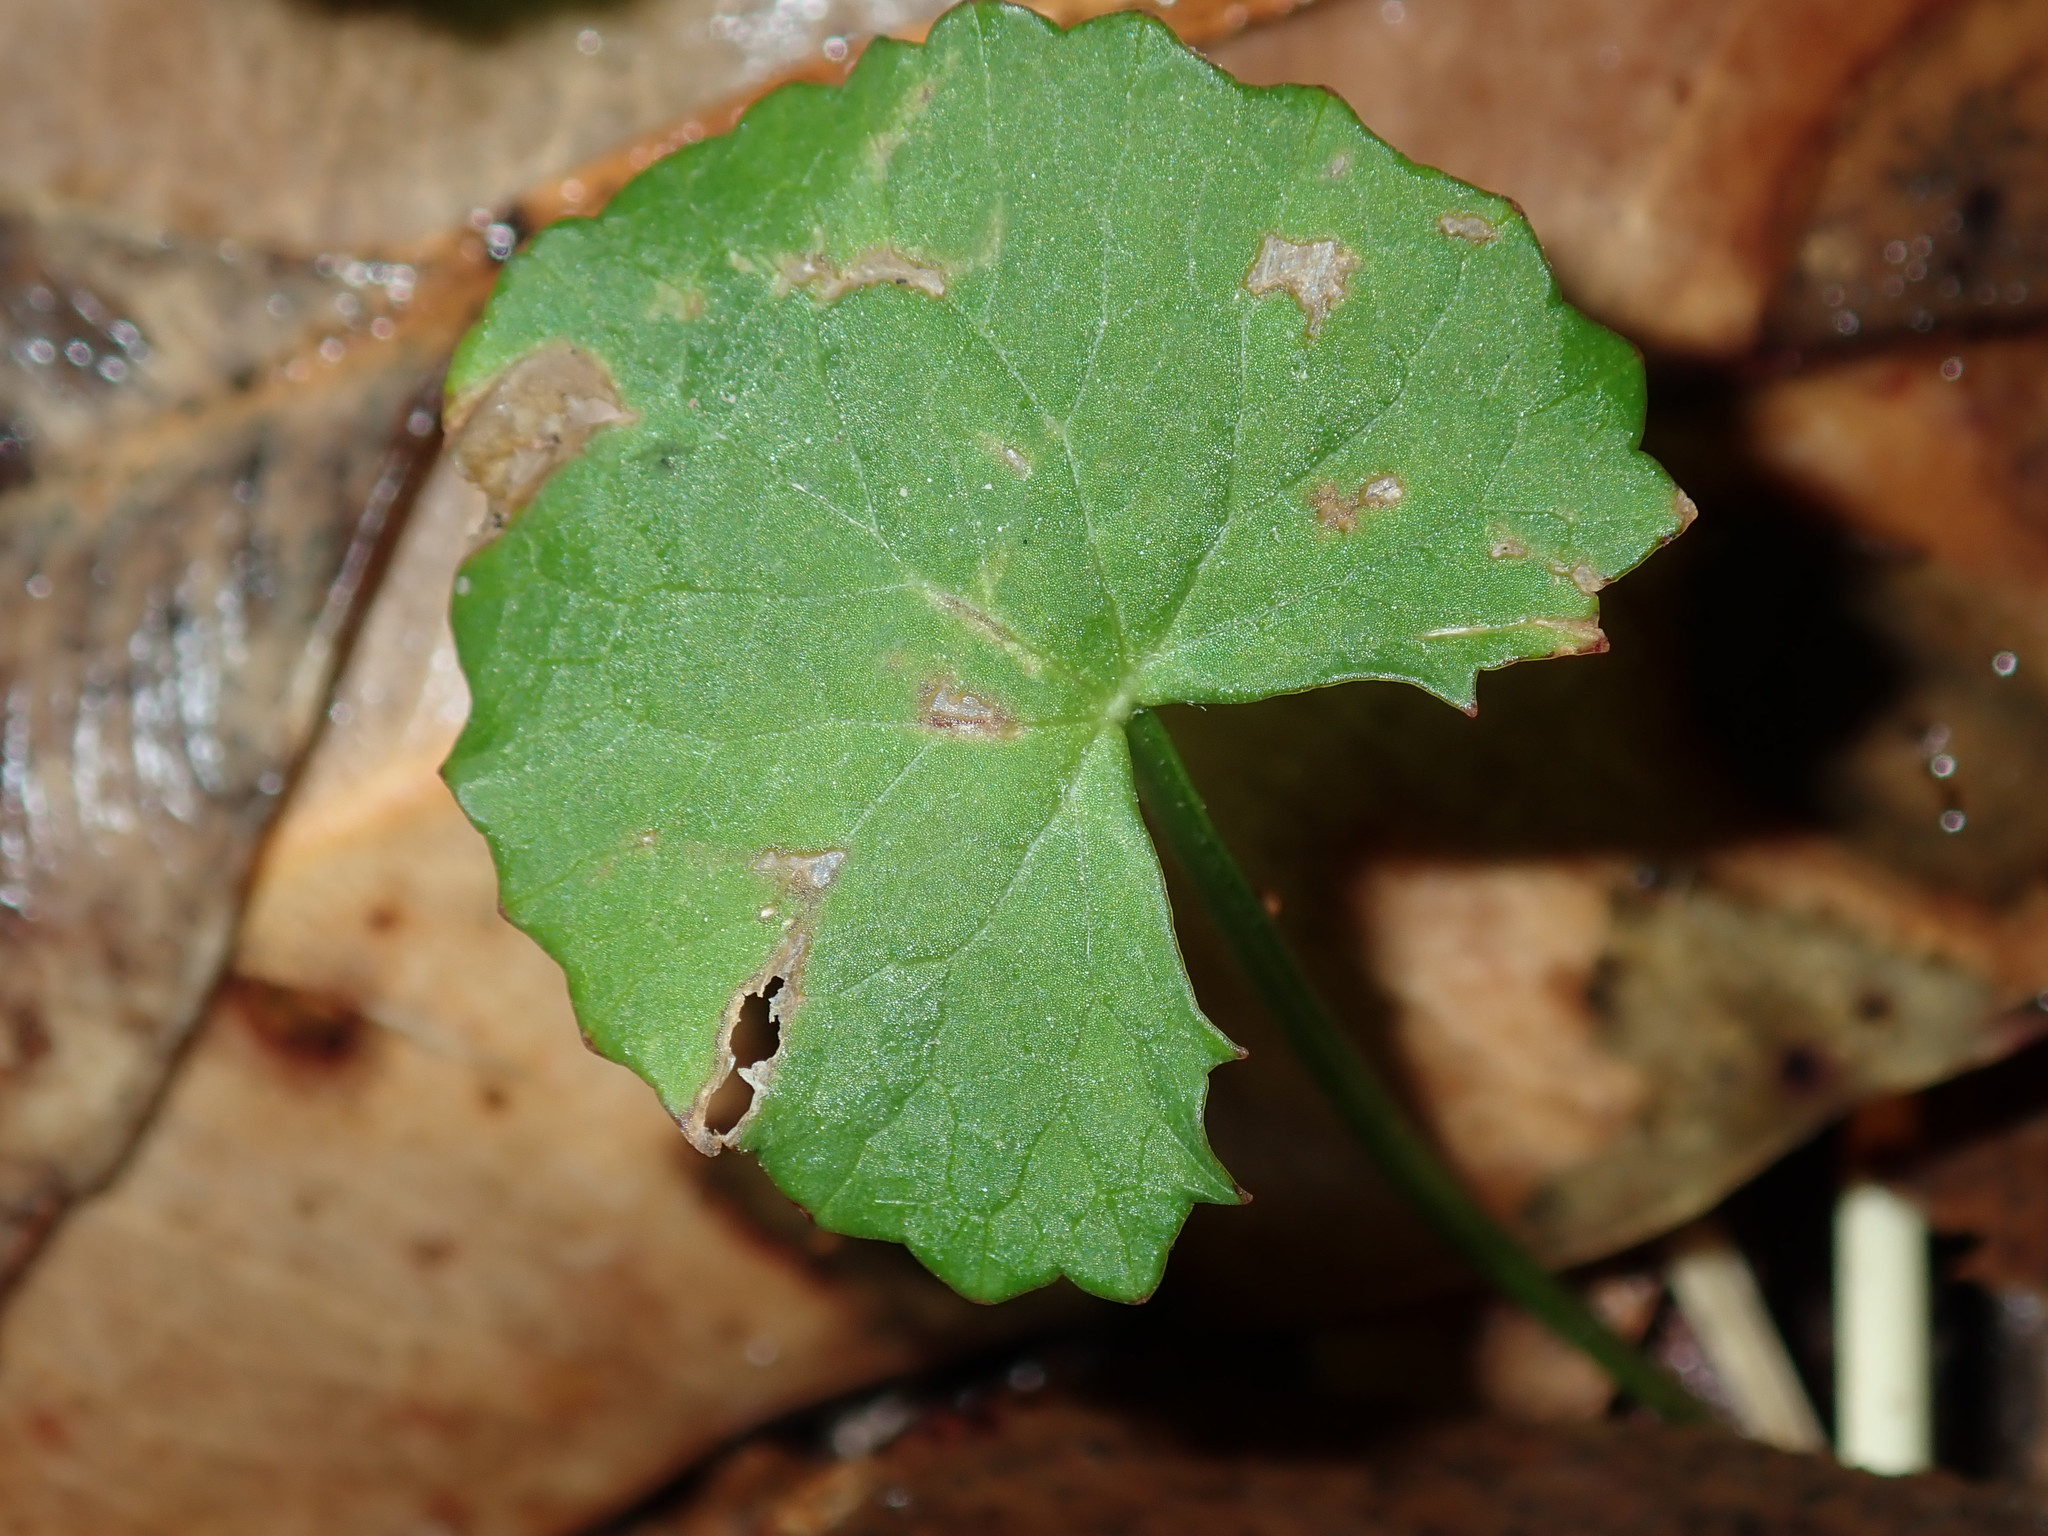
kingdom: Plantae
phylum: Tracheophyta
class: Magnoliopsida
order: Apiales
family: Apiaceae
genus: Centella
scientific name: Centella asiatica
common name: Spadeleaf
